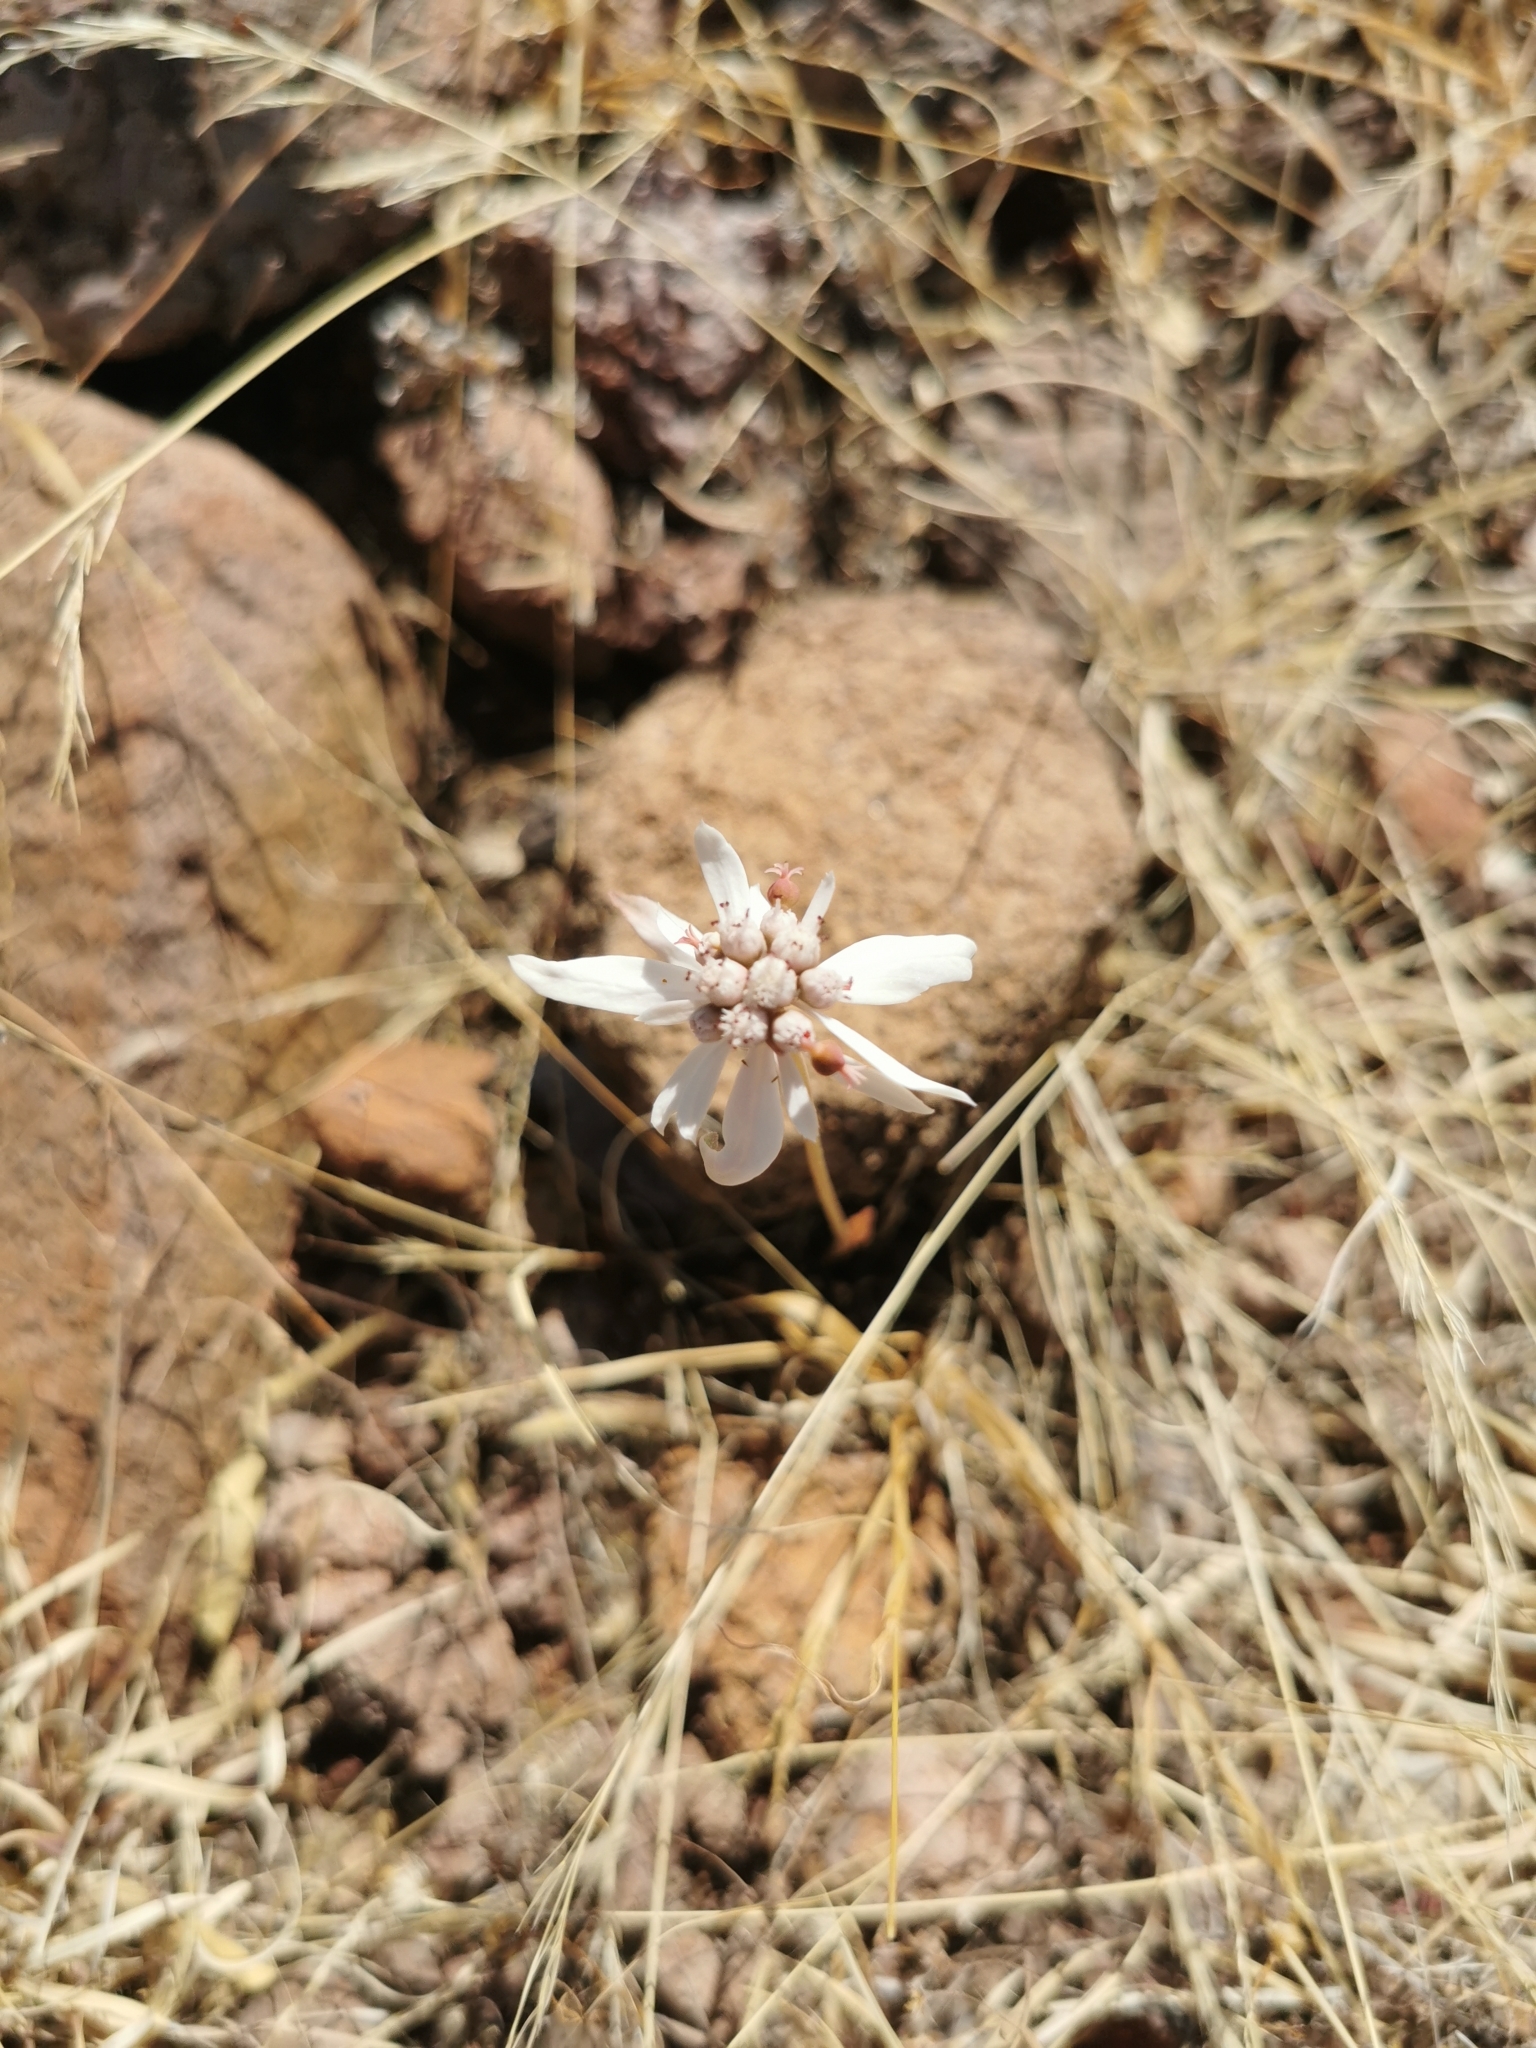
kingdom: Plantae
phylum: Tracheophyta
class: Magnoliopsida
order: Malpighiales
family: Euphorbiaceae
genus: Euphorbia
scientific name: Euphorbia radians
